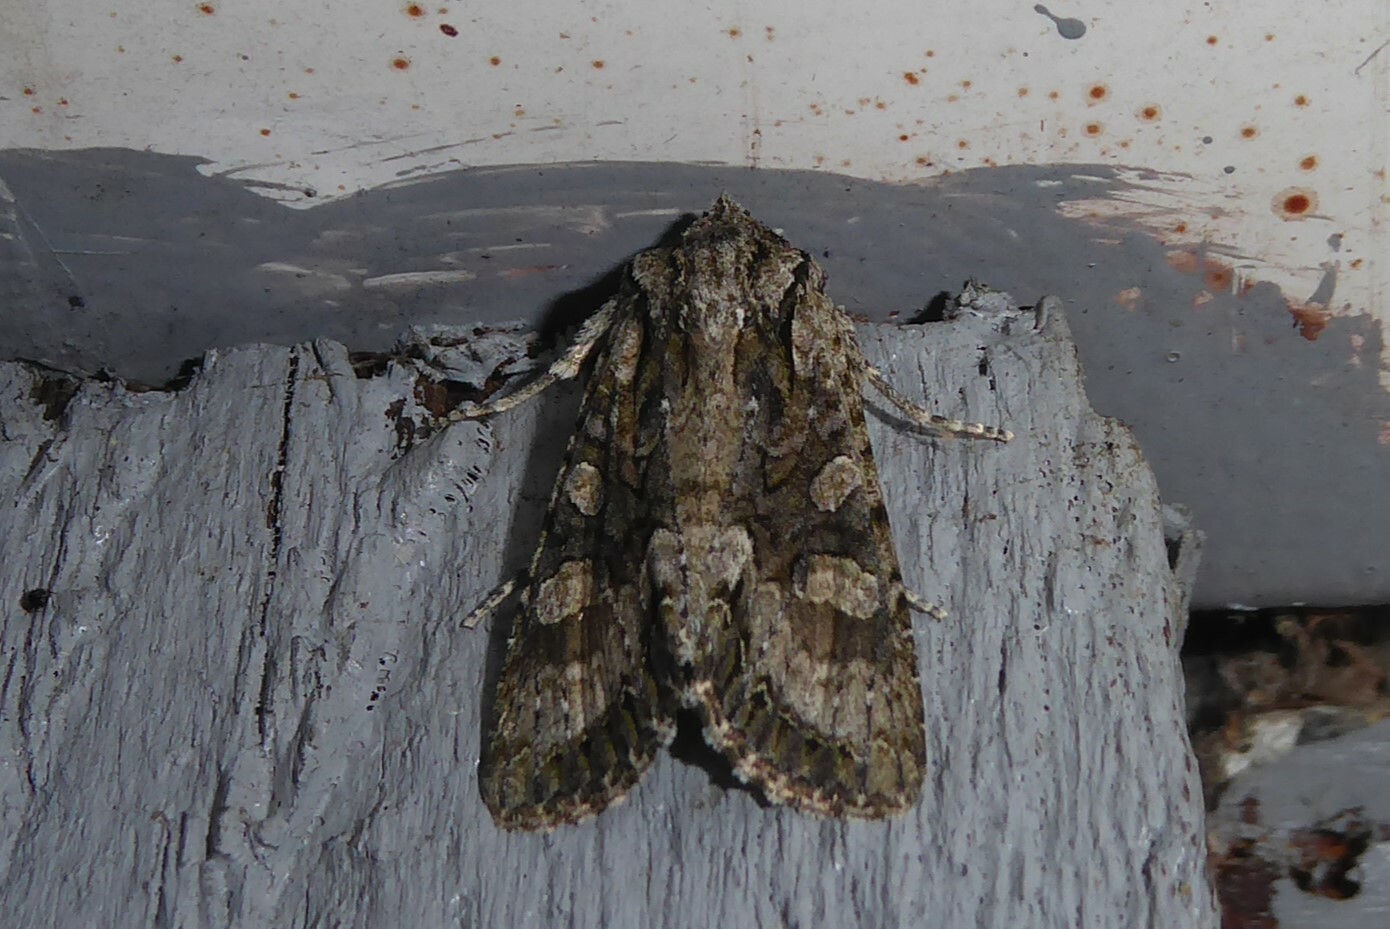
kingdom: Animalia
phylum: Arthropoda
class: Insecta
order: Lepidoptera
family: Noctuidae
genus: Ichneutica
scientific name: Ichneutica mutans
